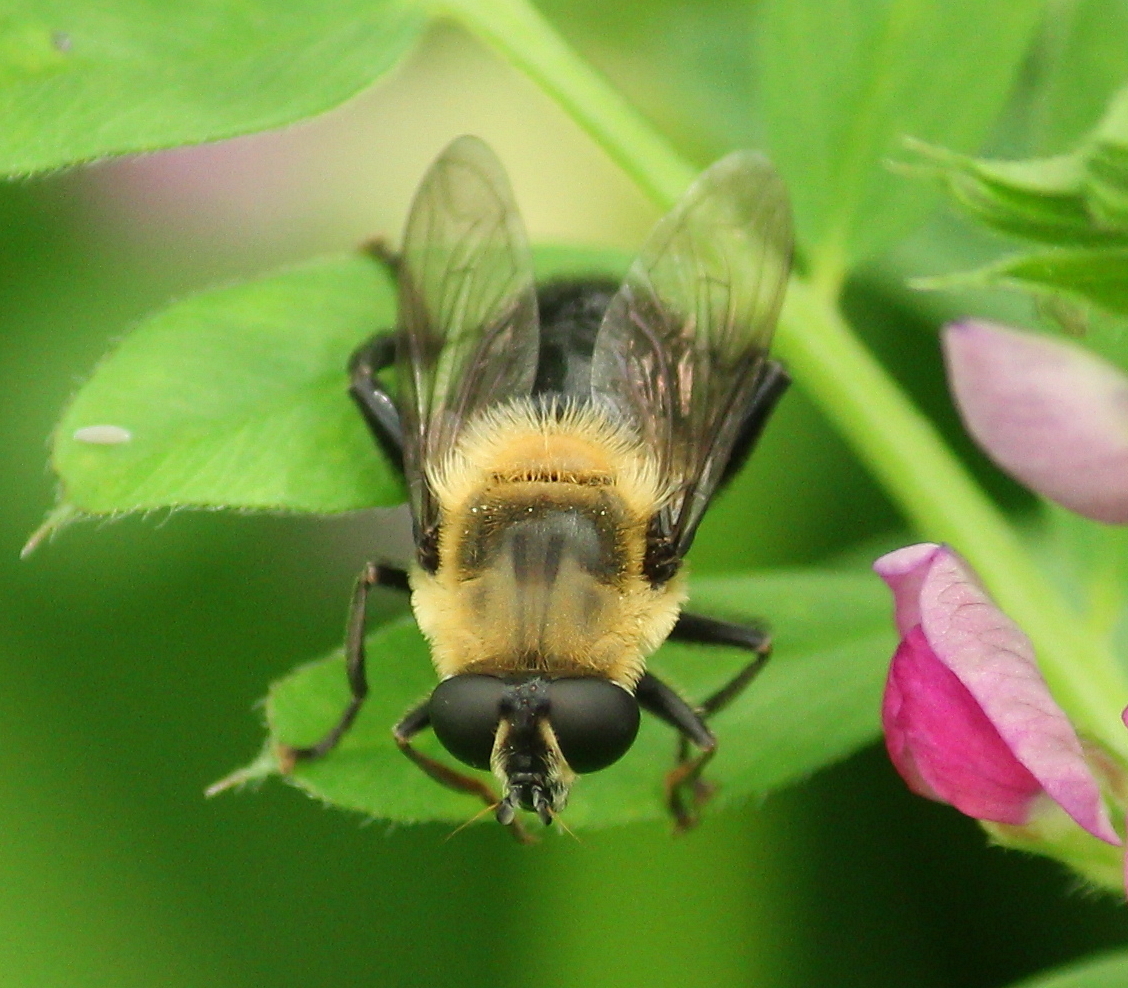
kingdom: Animalia
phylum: Arthropoda
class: Insecta
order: Diptera
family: Syrphidae
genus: Imatisma
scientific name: Imatisma bautias
